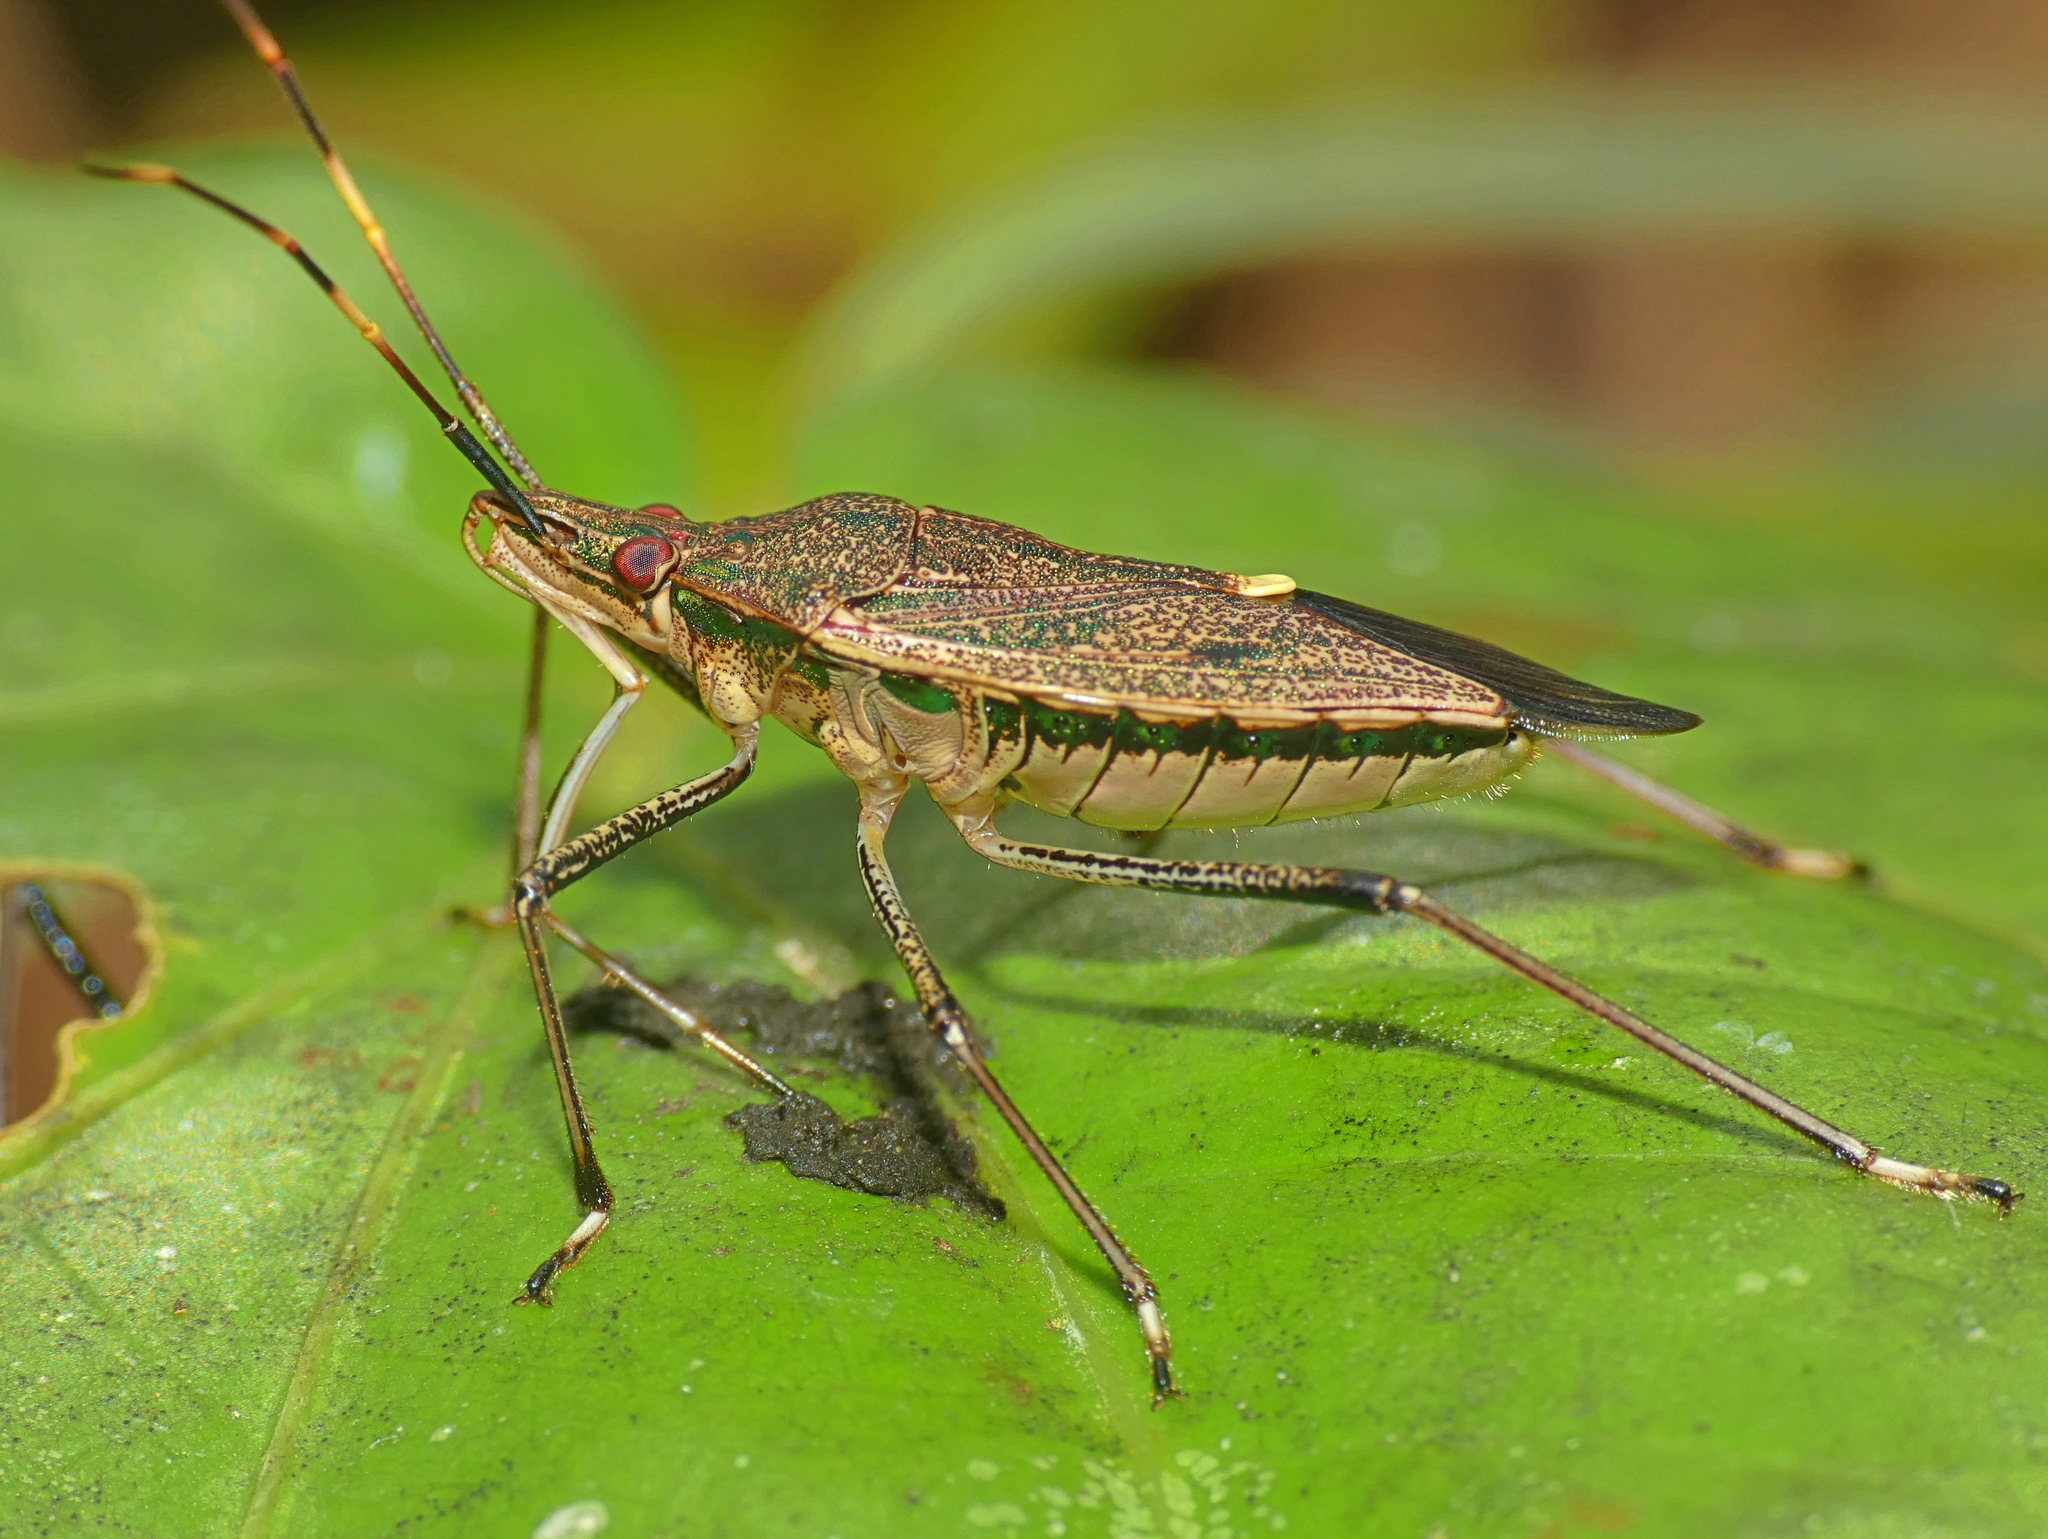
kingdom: Animalia
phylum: Arthropoda
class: Insecta
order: Hemiptera
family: Pentatomidae
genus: Poecilometis
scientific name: Poecilometis
